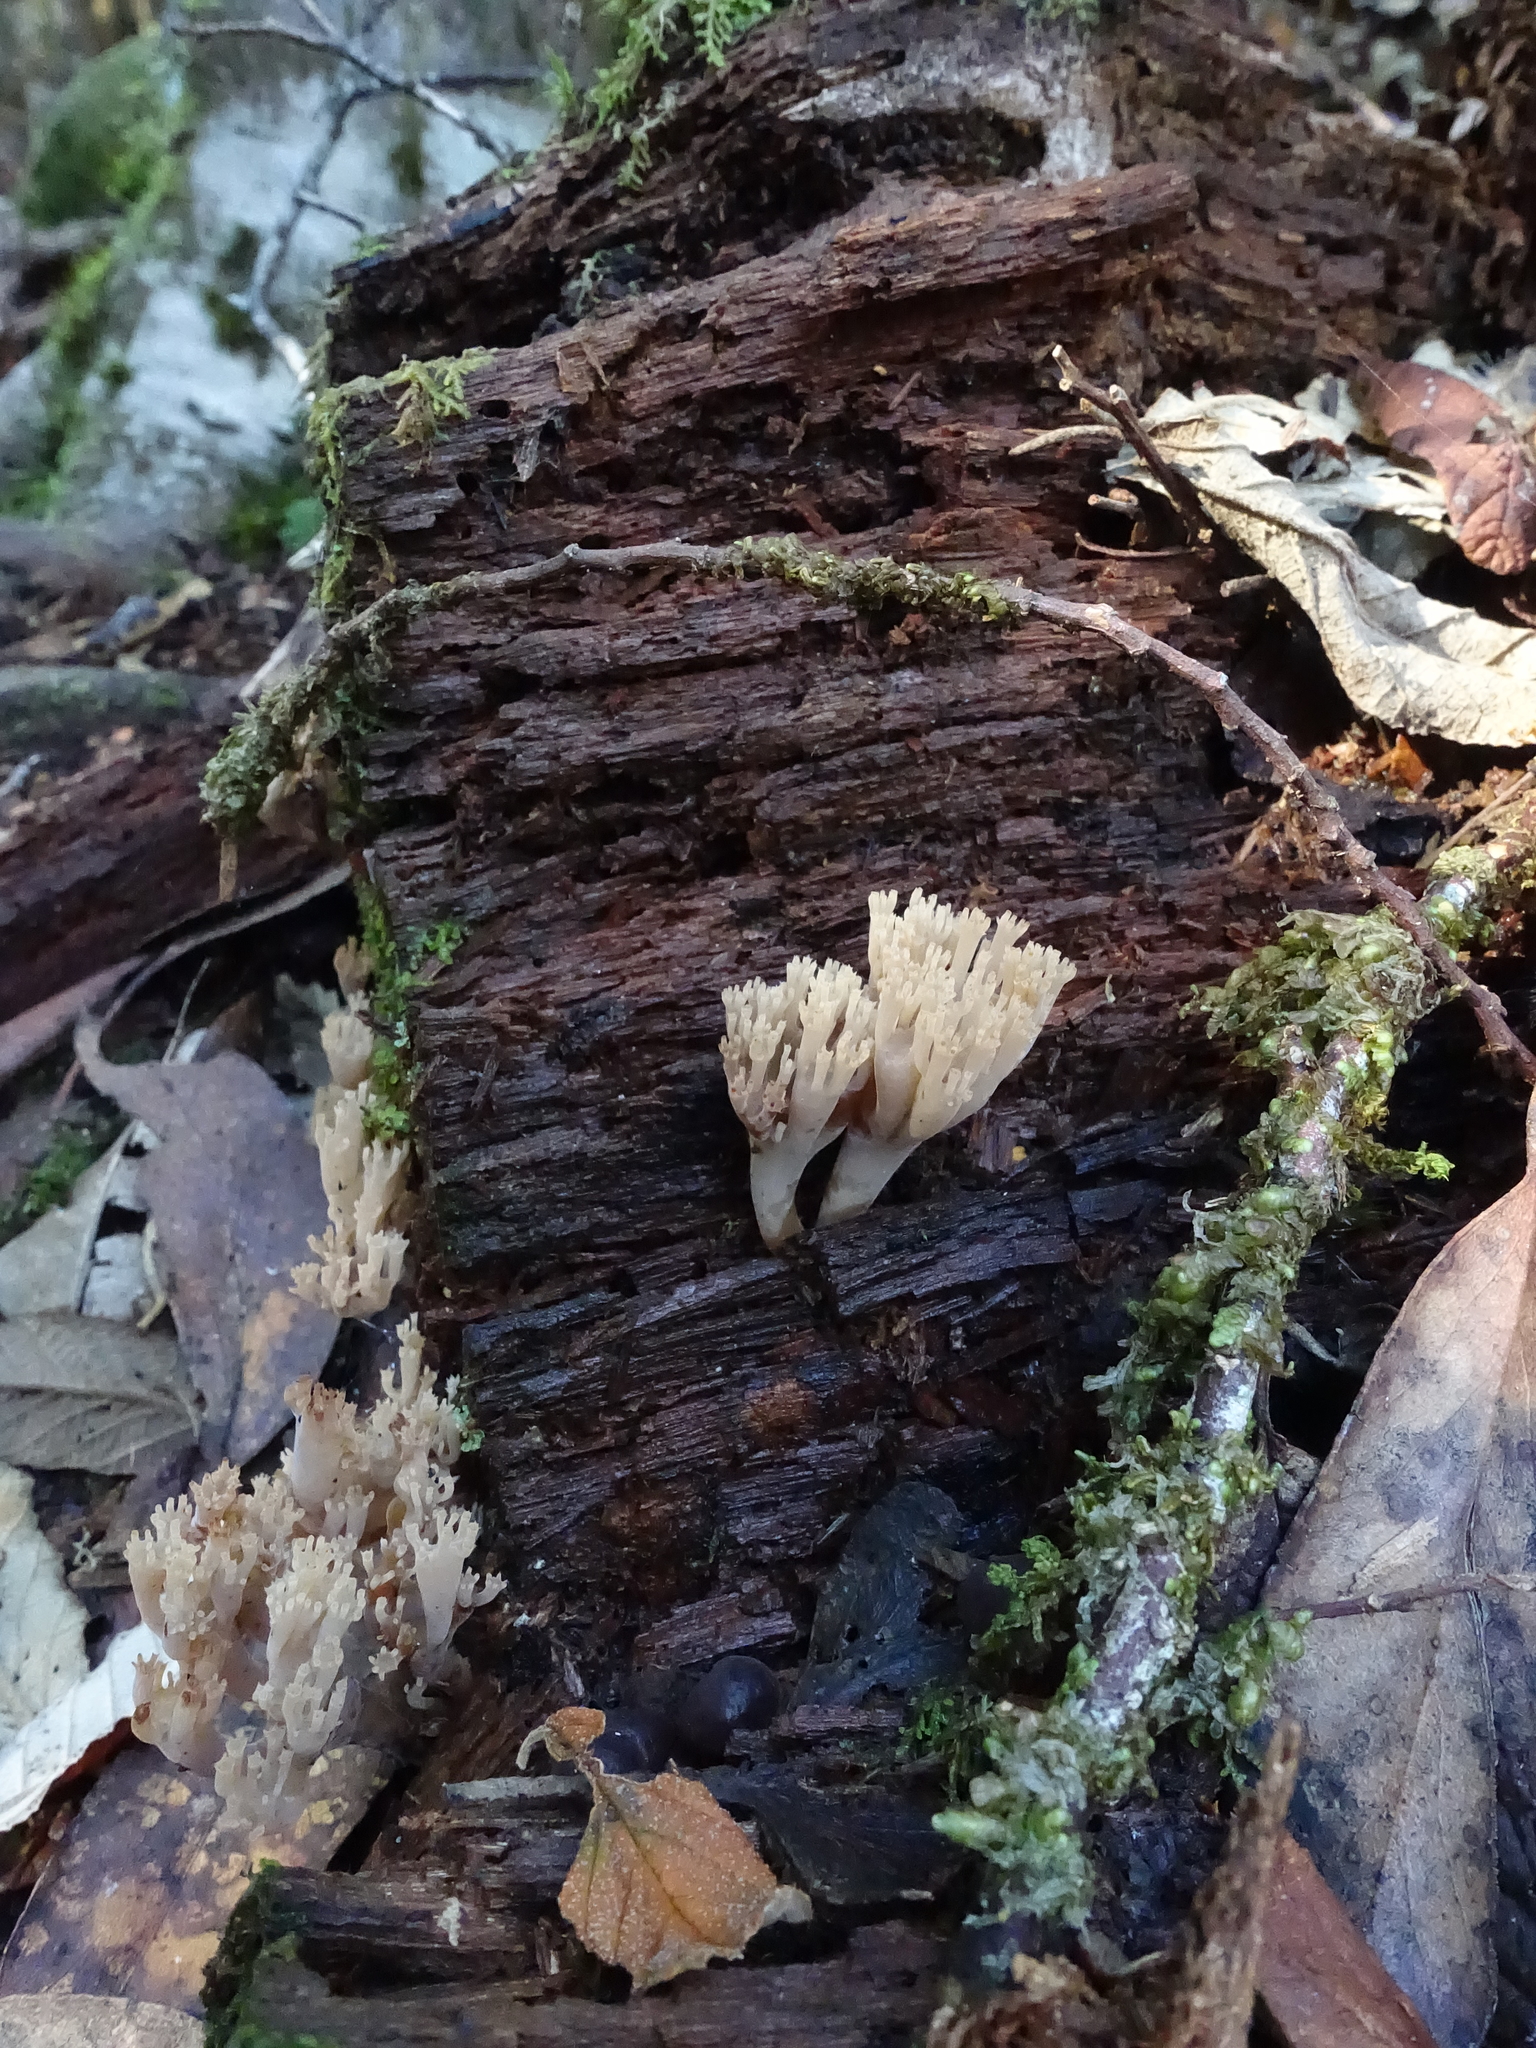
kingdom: Fungi
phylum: Basidiomycota
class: Agaricomycetes
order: Russulales
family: Auriscalpiaceae
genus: Artomyces
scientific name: Artomyces austropiperatus
